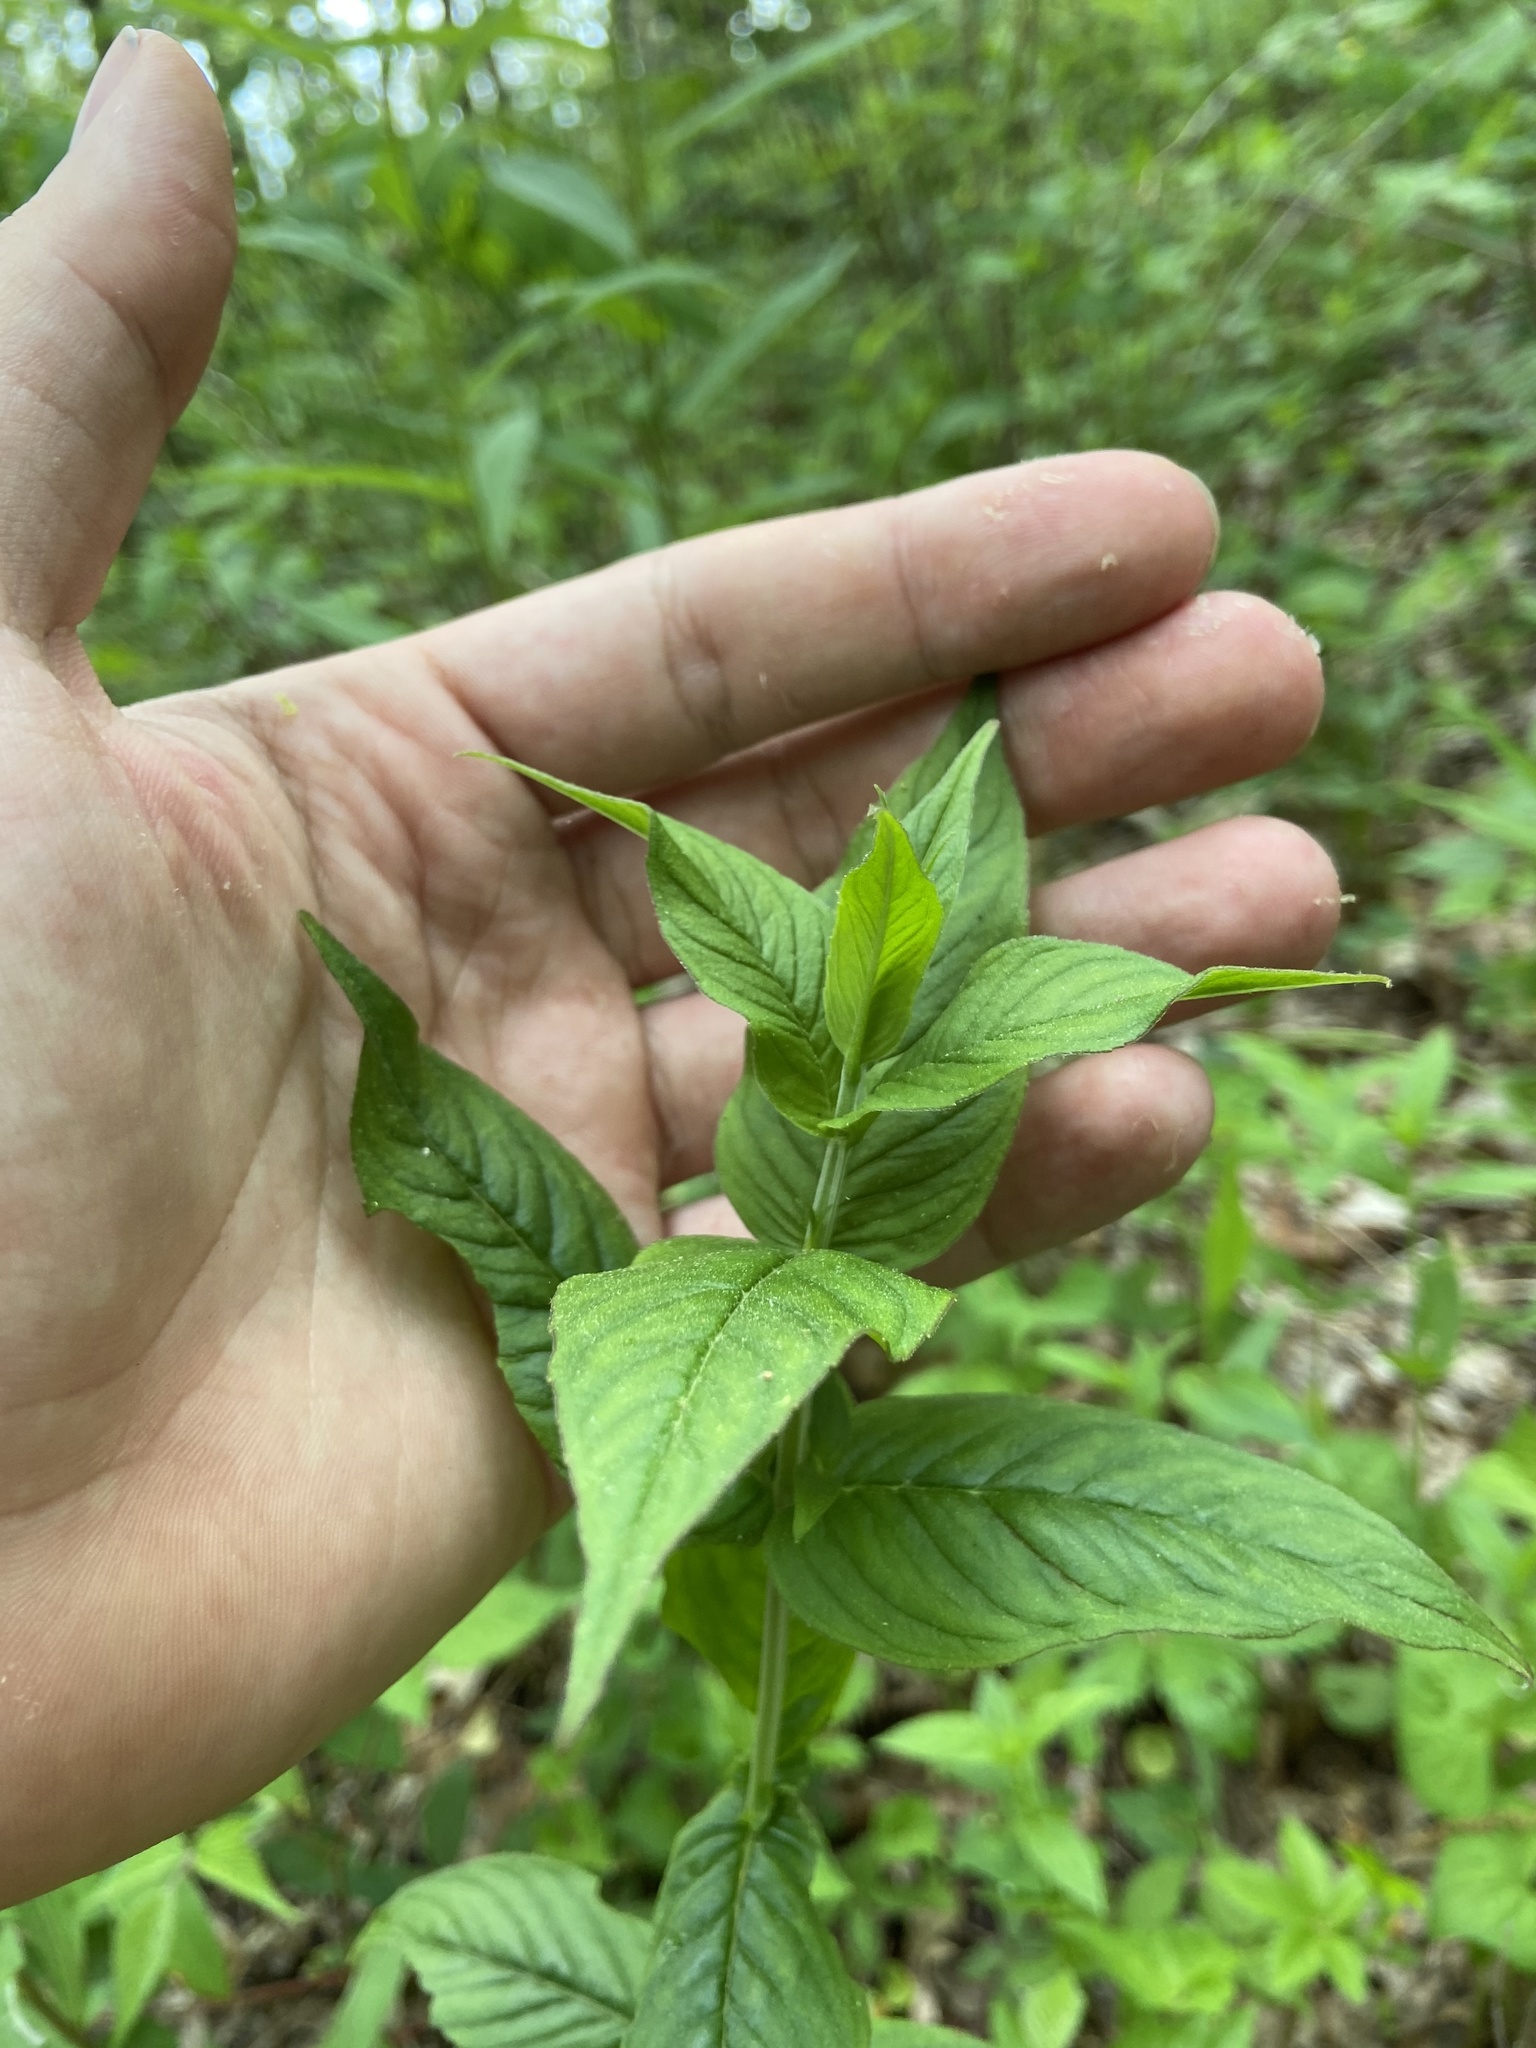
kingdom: Plantae
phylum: Tracheophyta
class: Magnoliopsida
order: Dipsacales
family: Caprifoliaceae
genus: Diervilla
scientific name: Diervilla sessilifolia
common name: Bush-honeysuckle
